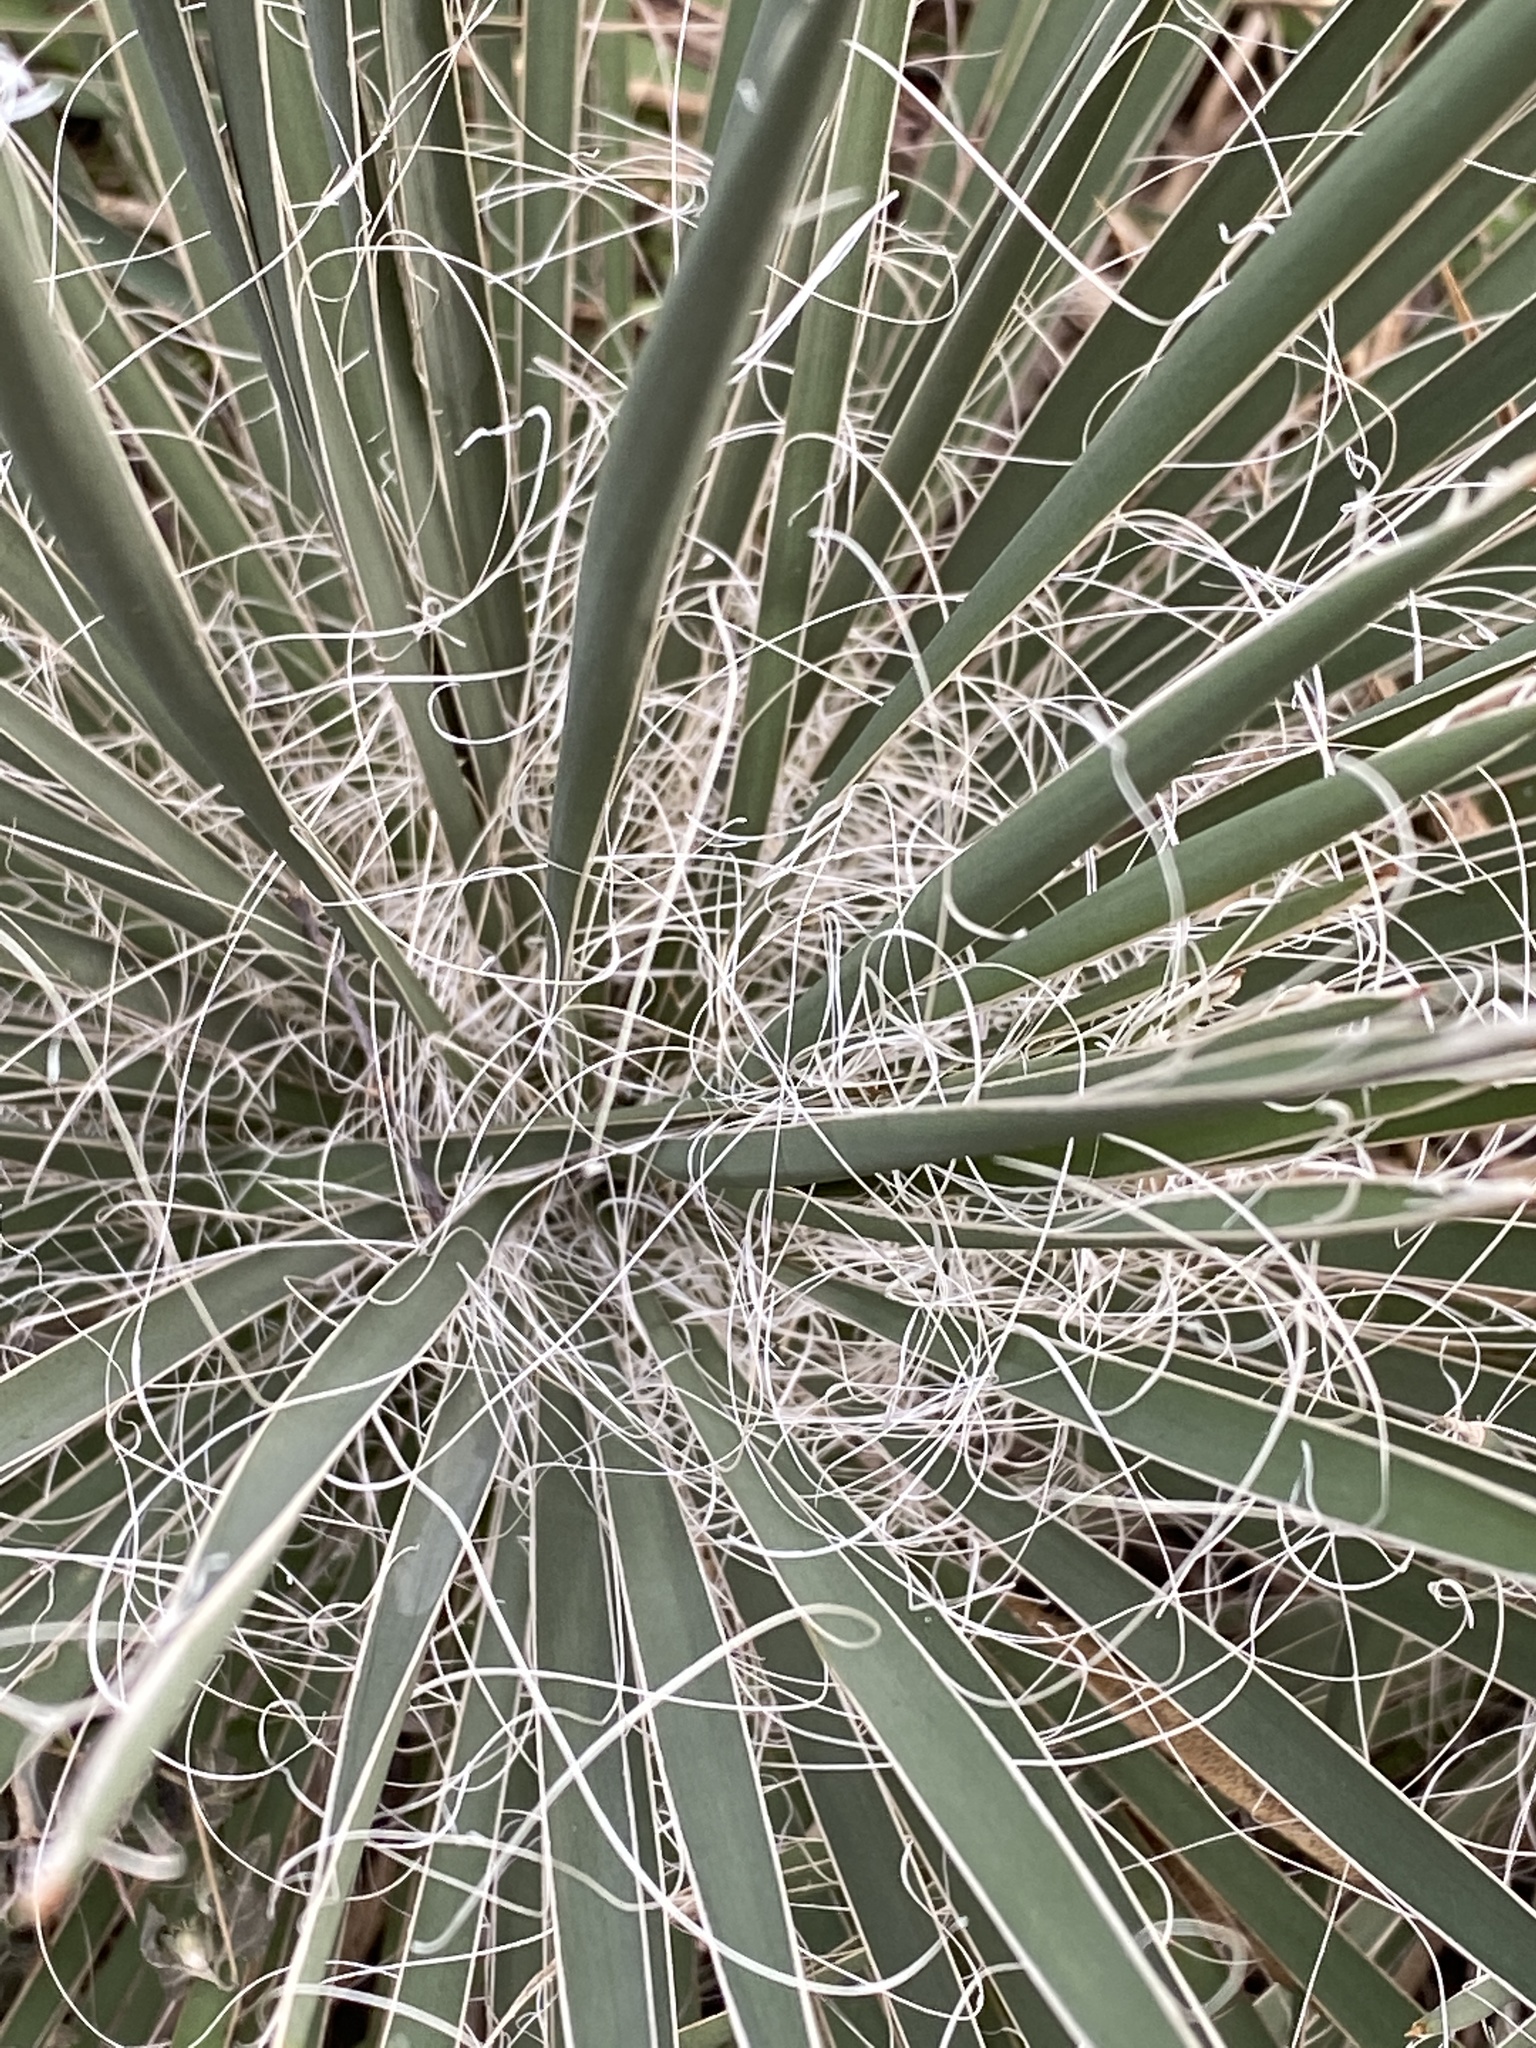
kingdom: Plantae
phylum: Tracheophyta
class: Liliopsida
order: Asparagales
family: Asparagaceae
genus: Yucca
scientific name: Yucca constricta
